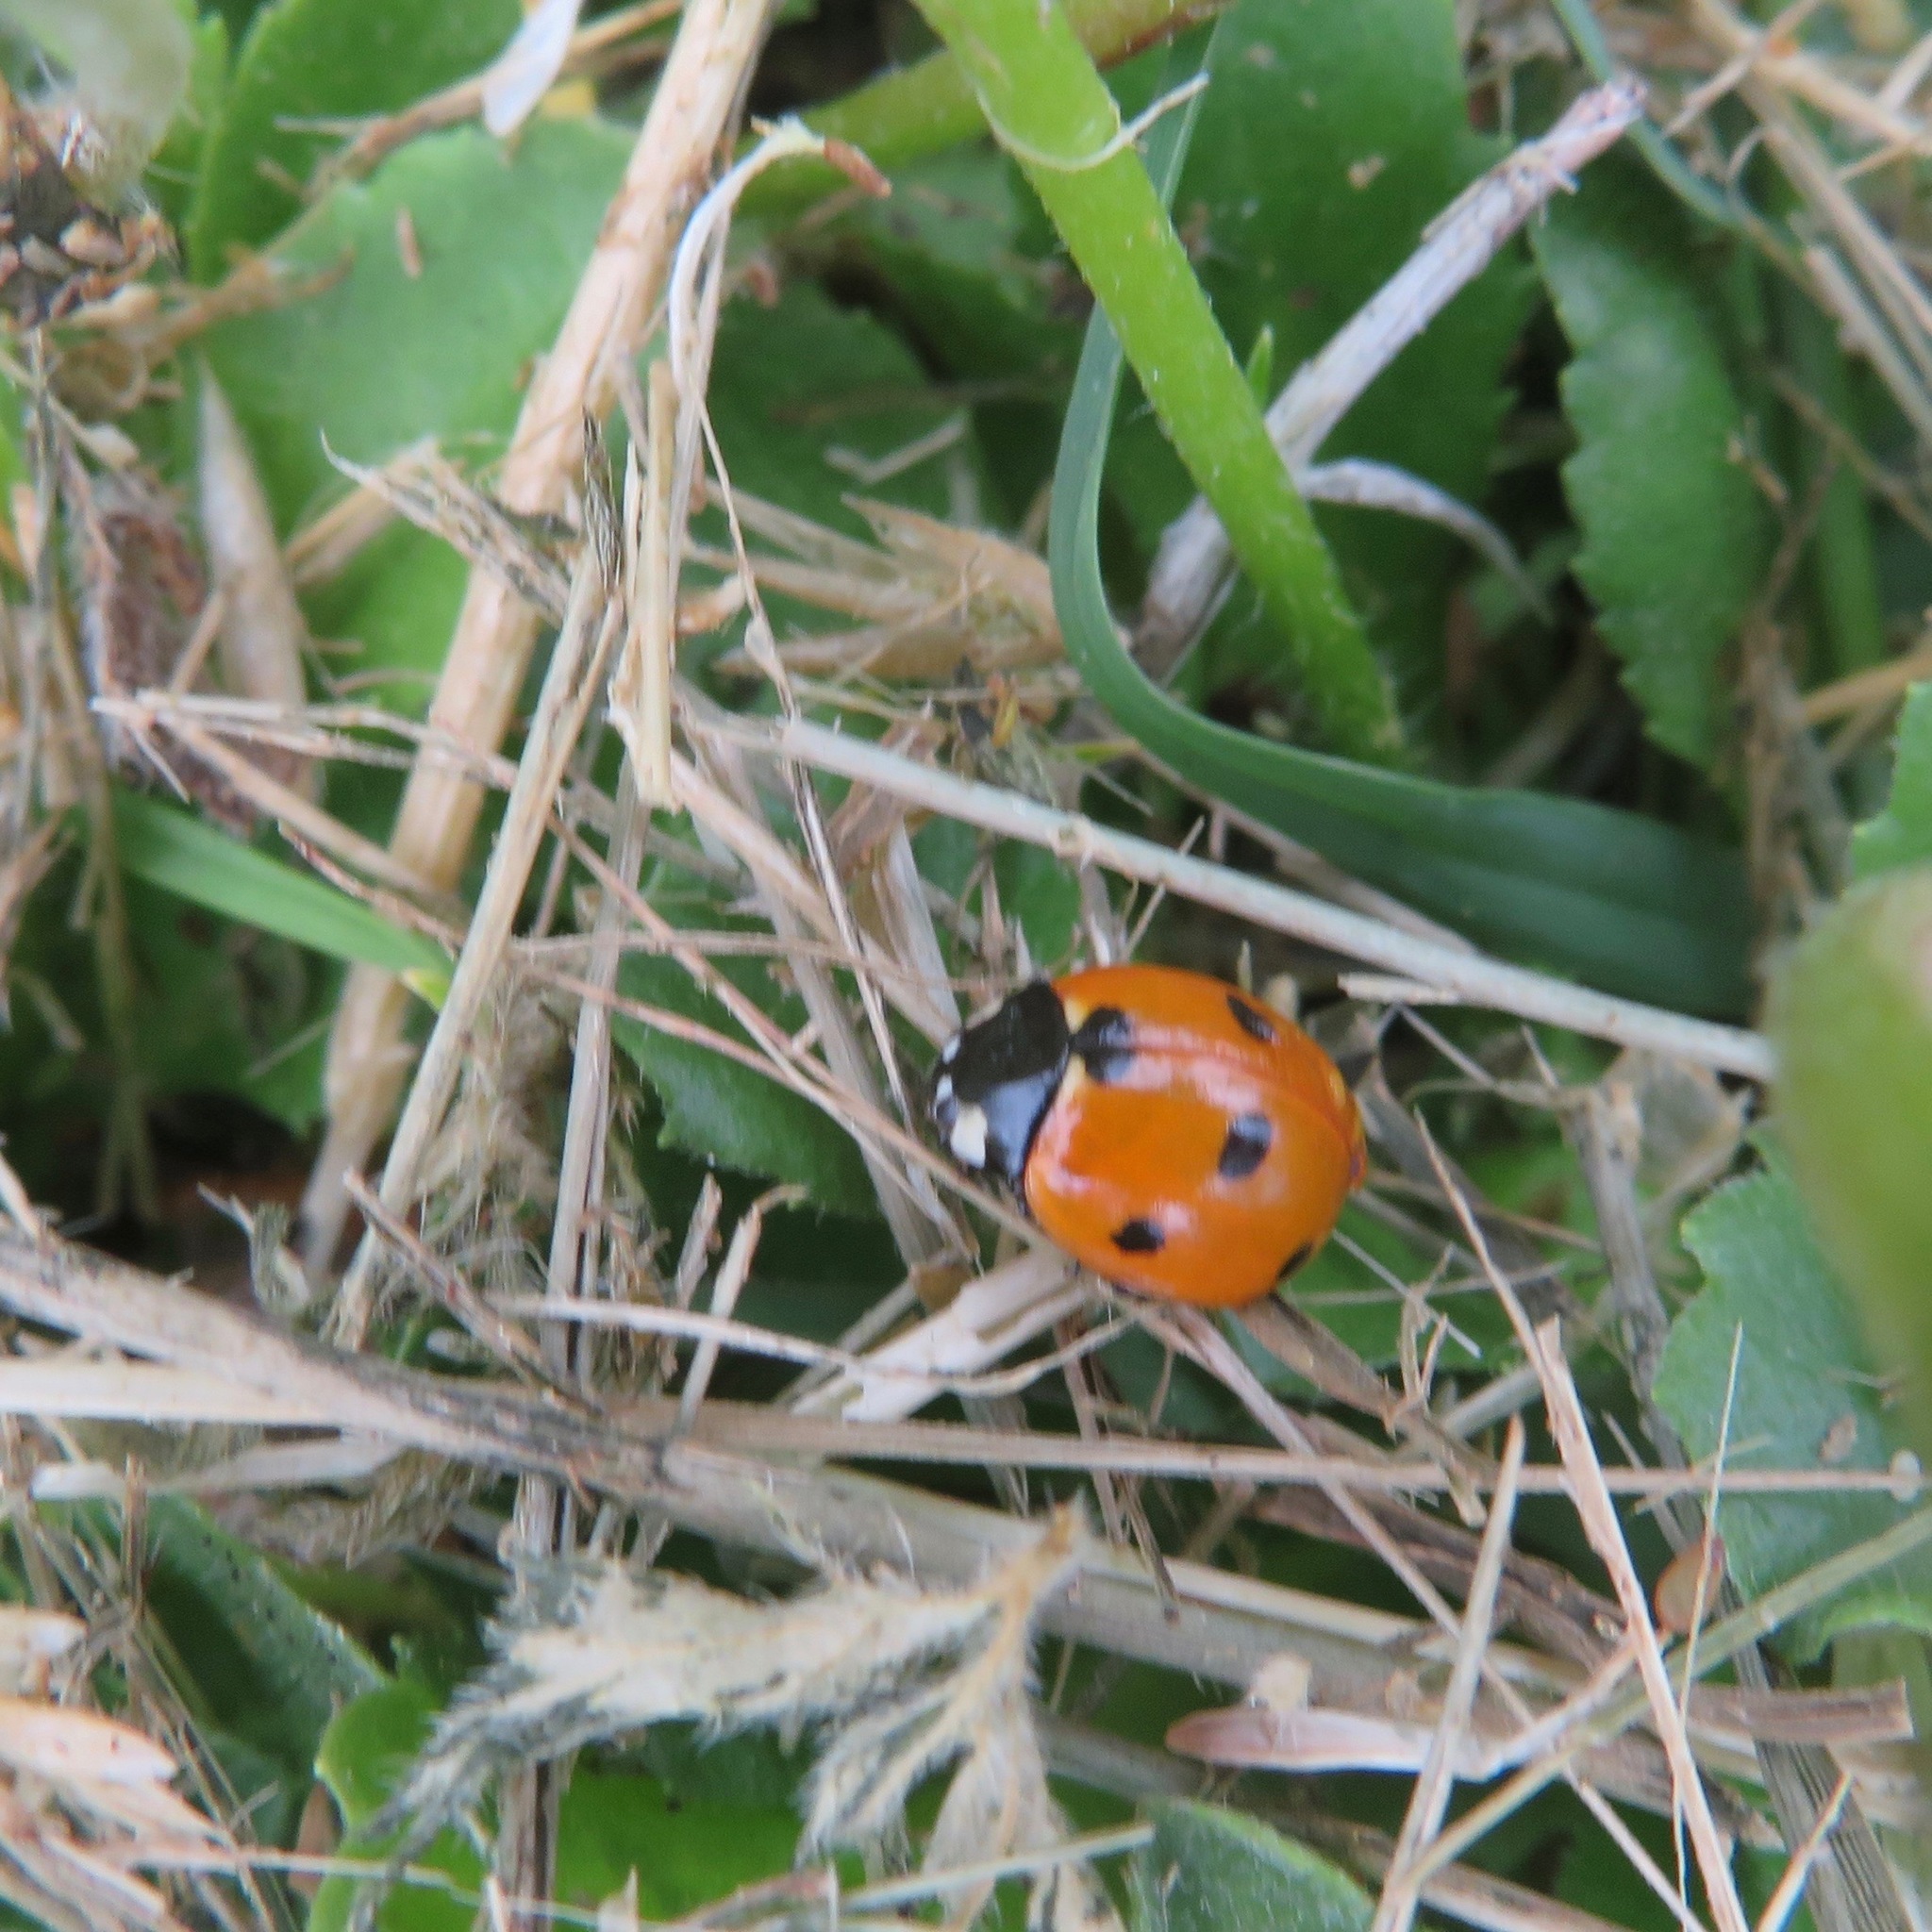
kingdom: Animalia
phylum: Arthropoda
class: Insecta
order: Coleoptera
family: Coccinellidae
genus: Coccinella
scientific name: Coccinella septempunctata
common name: Sevenspotted lady beetle
